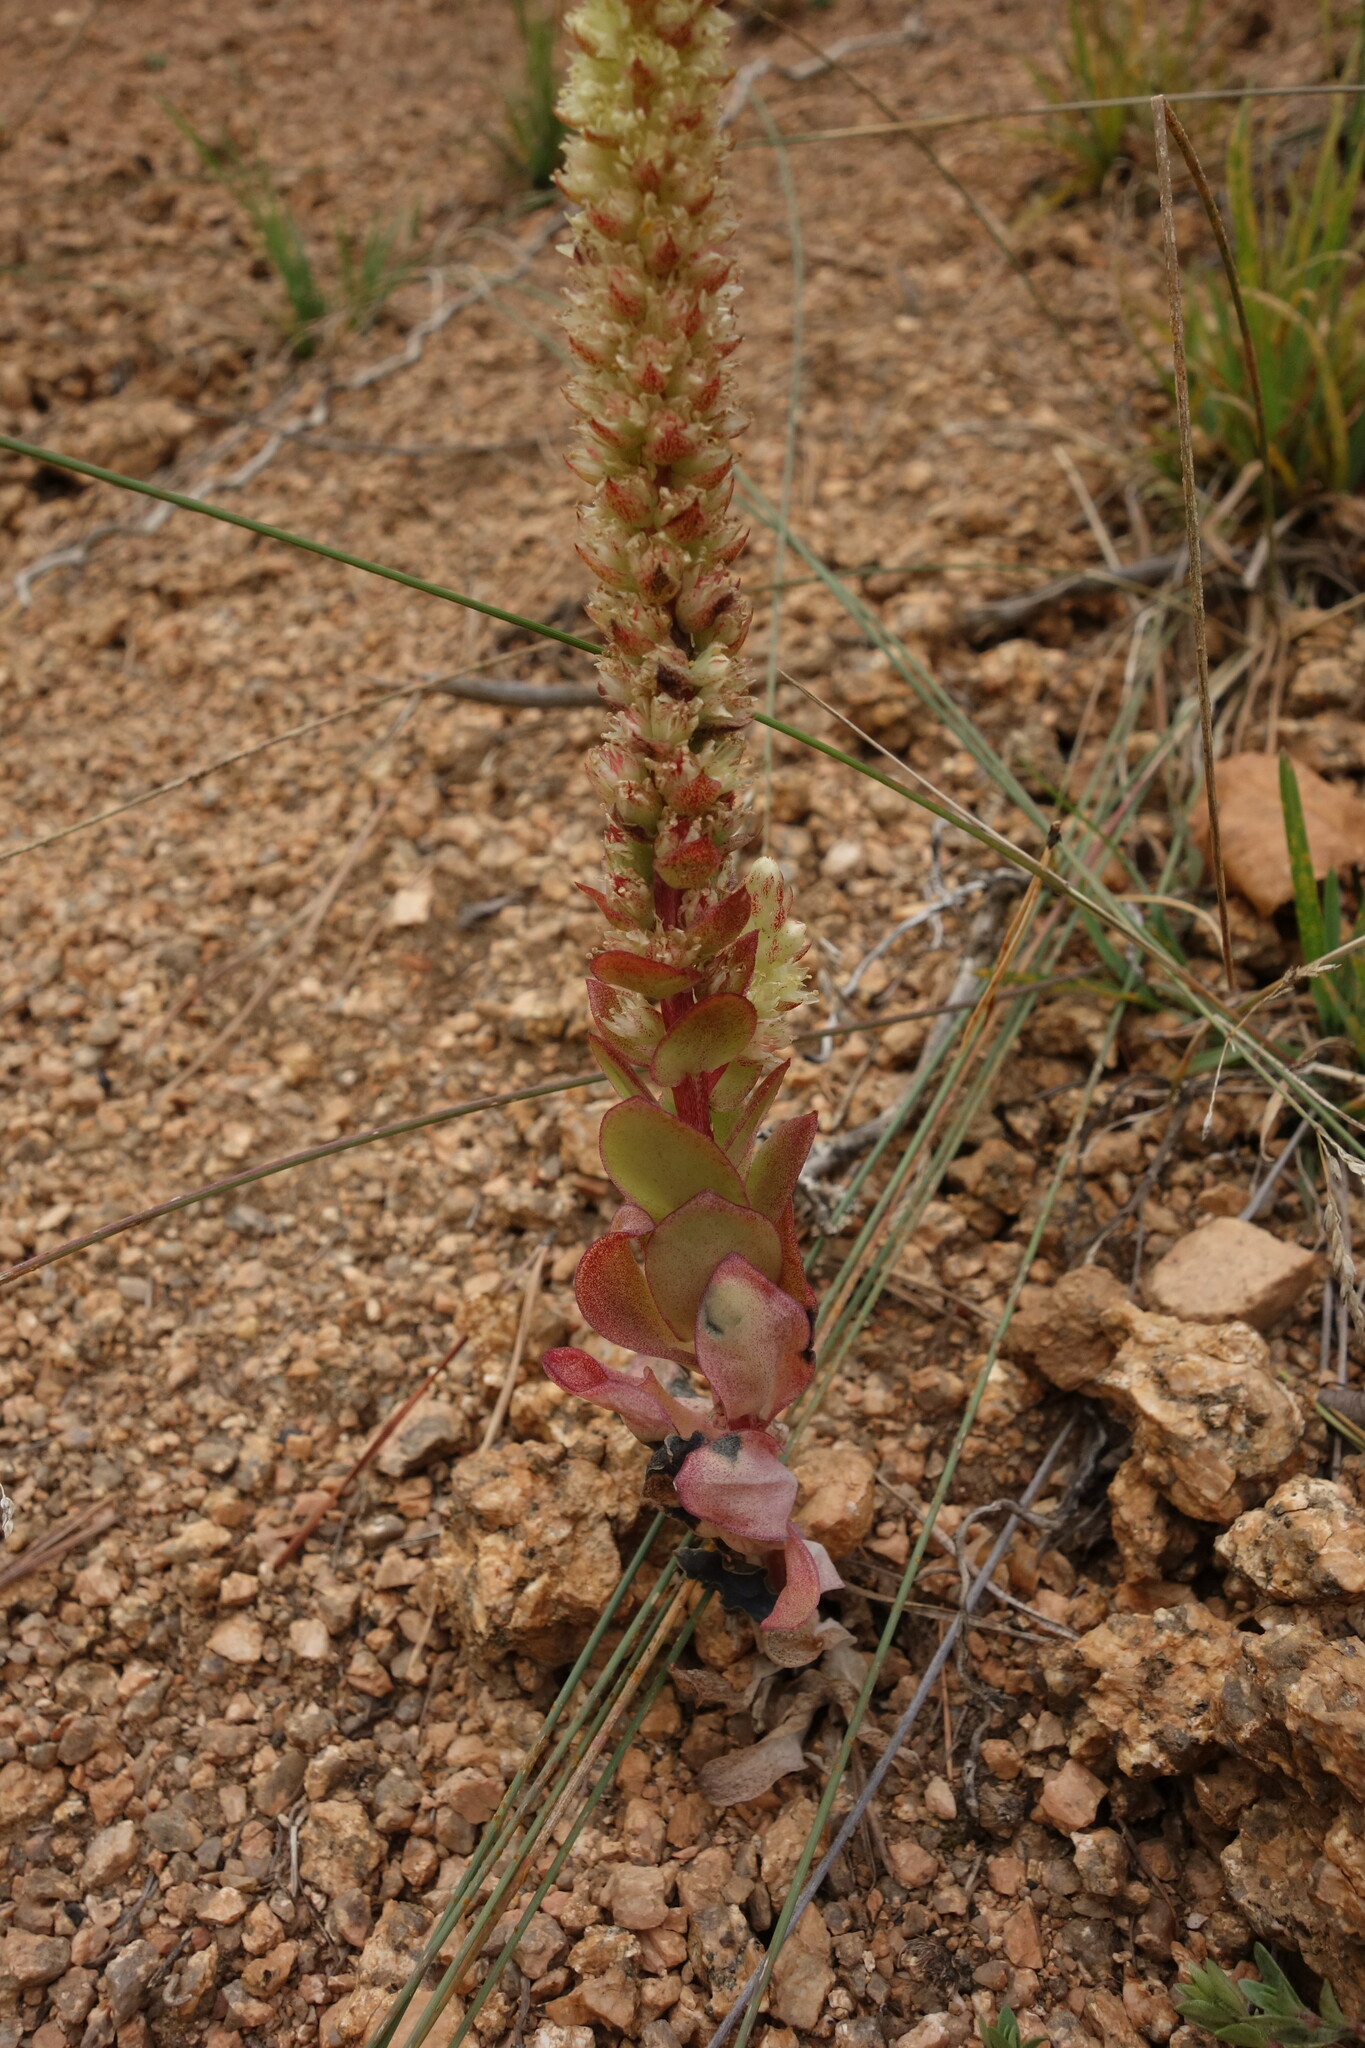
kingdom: Plantae
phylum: Tracheophyta
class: Magnoliopsida
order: Saxifragales
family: Crassulaceae
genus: Orostachys
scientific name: Orostachys malacophylla
